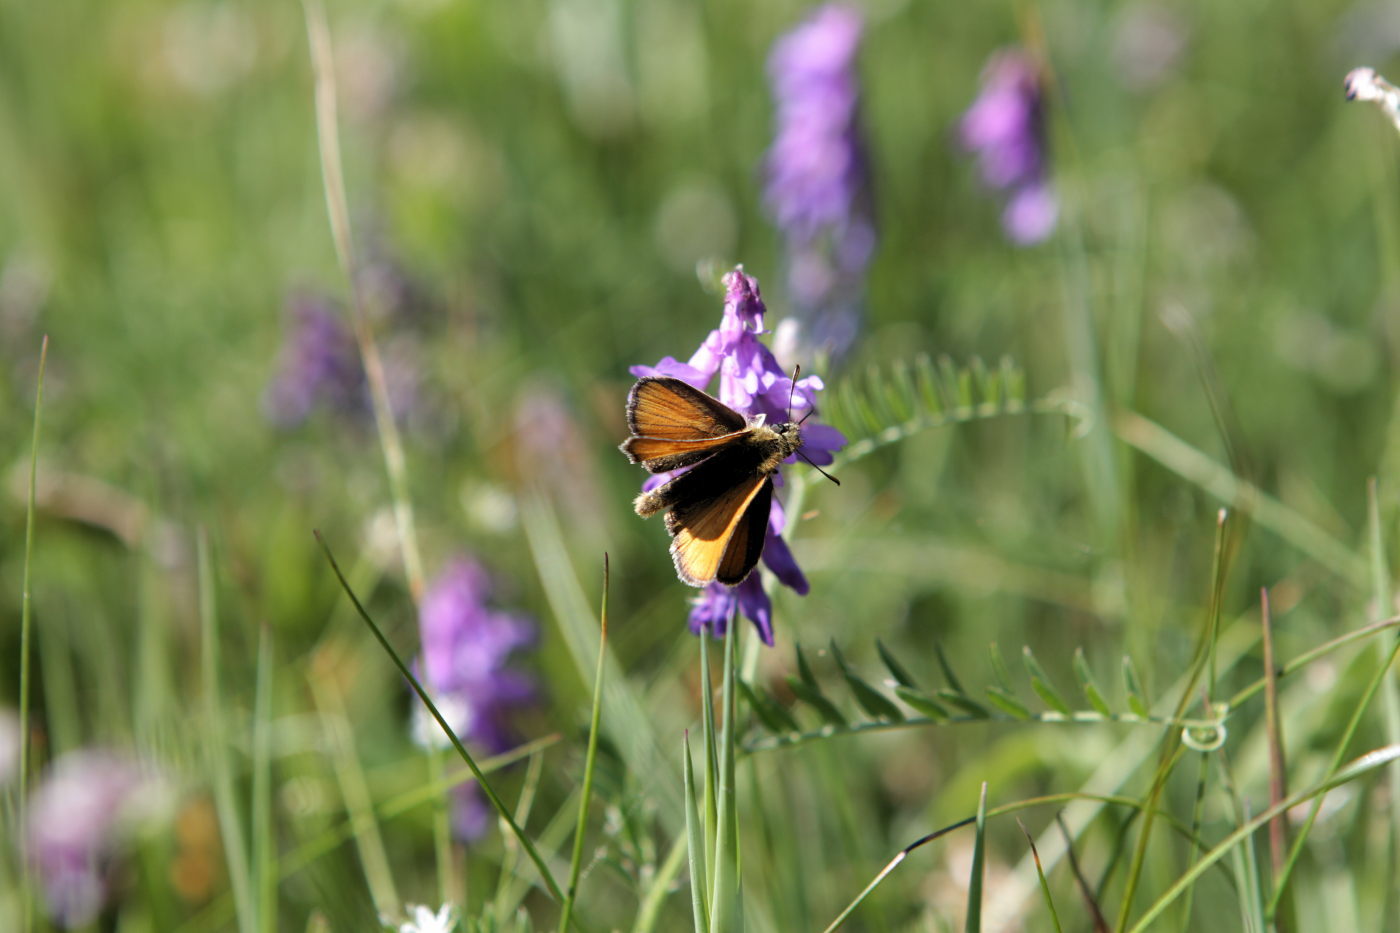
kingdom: Animalia
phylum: Arthropoda
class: Insecta
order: Lepidoptera
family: Hesperiidae
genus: Thymelicus
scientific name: Thymelicus sylvestris
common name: Small skipper
